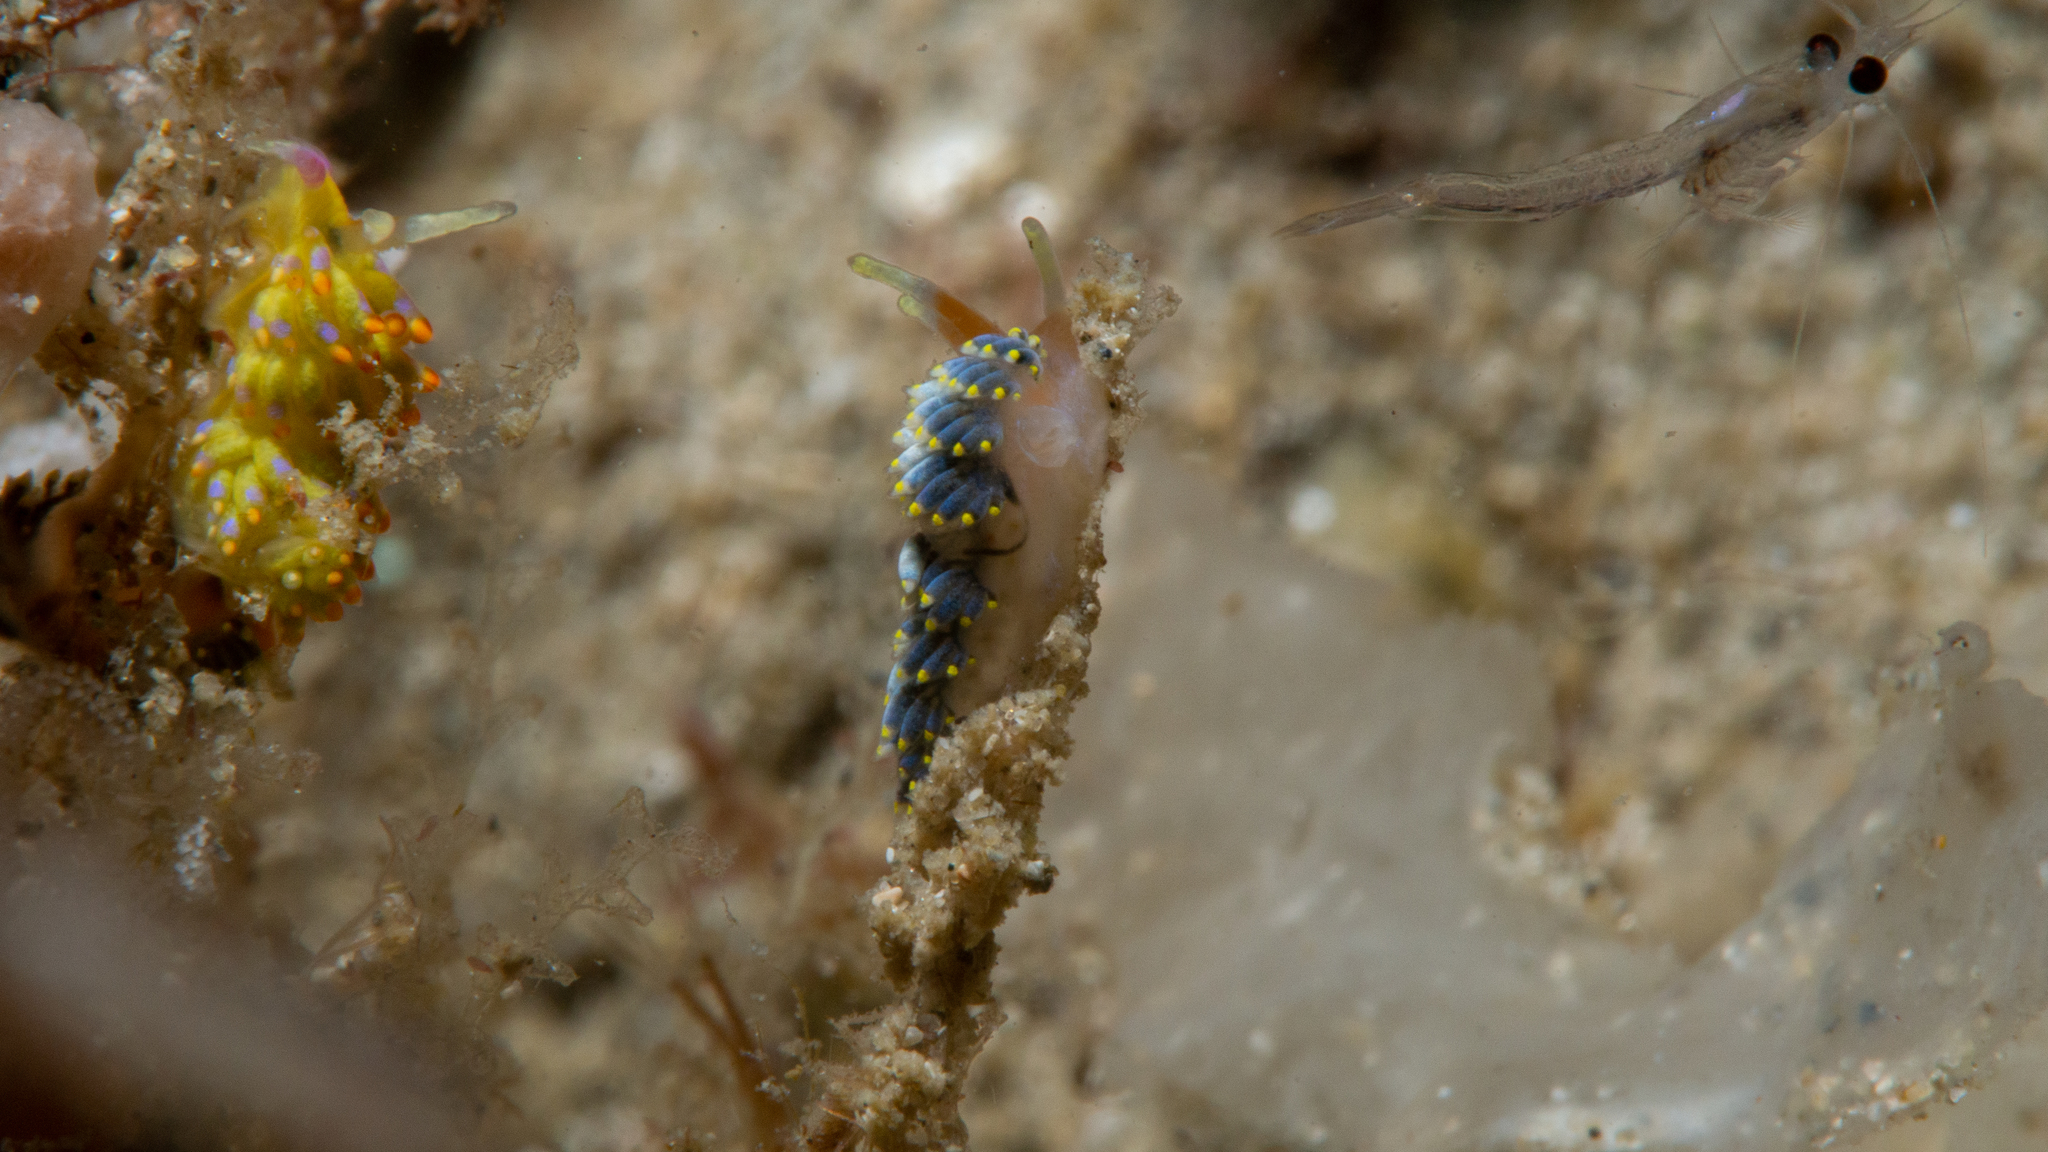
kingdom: Animalia
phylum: Mollusca
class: Gastropoda
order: Nudibranchia
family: Trinchesiidae
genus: Trinchesia
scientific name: Trinchesia catachroma
